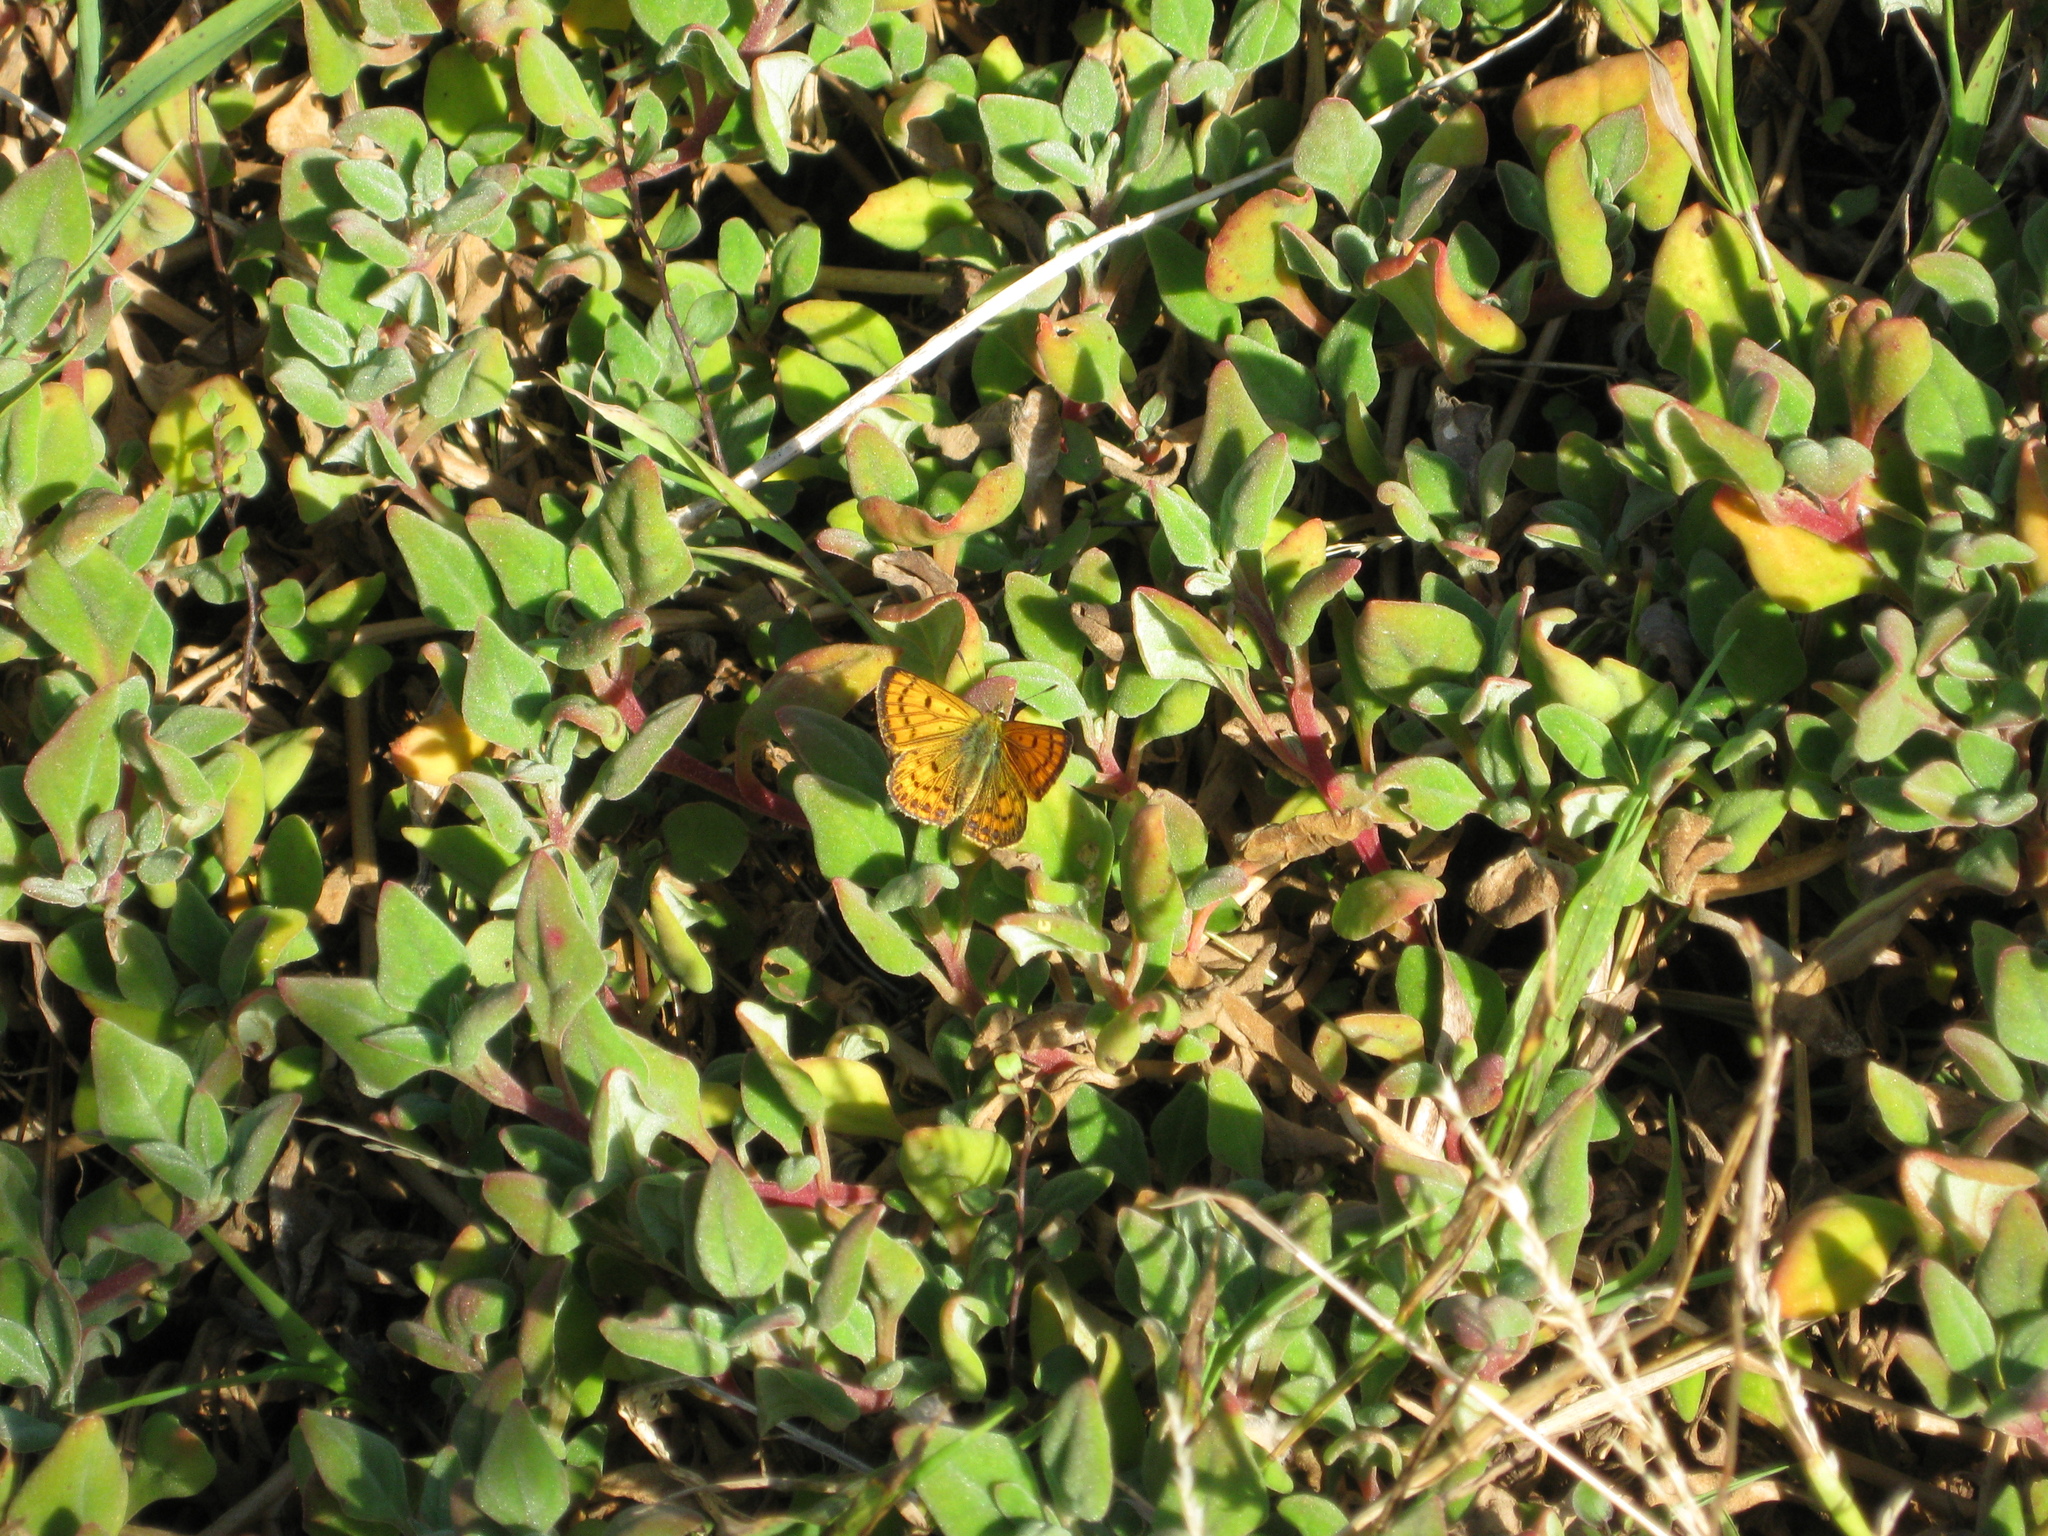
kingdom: Plantae
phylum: Tracheophyta
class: Magnoliopsida
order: Caryophyllales
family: Aizoaceae
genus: Tetragonia
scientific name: Tetragonia implexicoma
